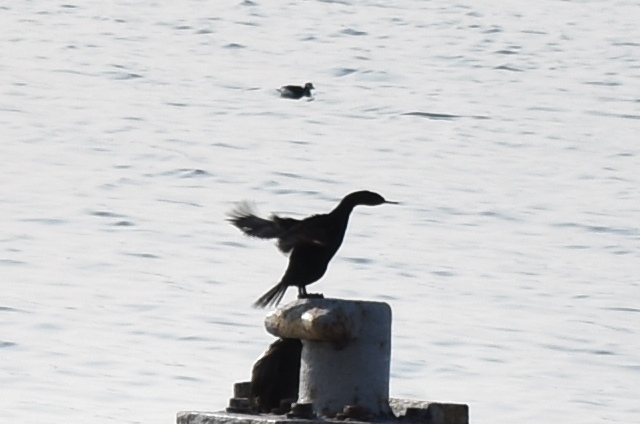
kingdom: Animalia
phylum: Chordata
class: Aves
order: Suliformes
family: Phalacrocoracidae
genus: Phalacrocorax
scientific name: Phalacrocorax pelagicus
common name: Pelagic cormorant
